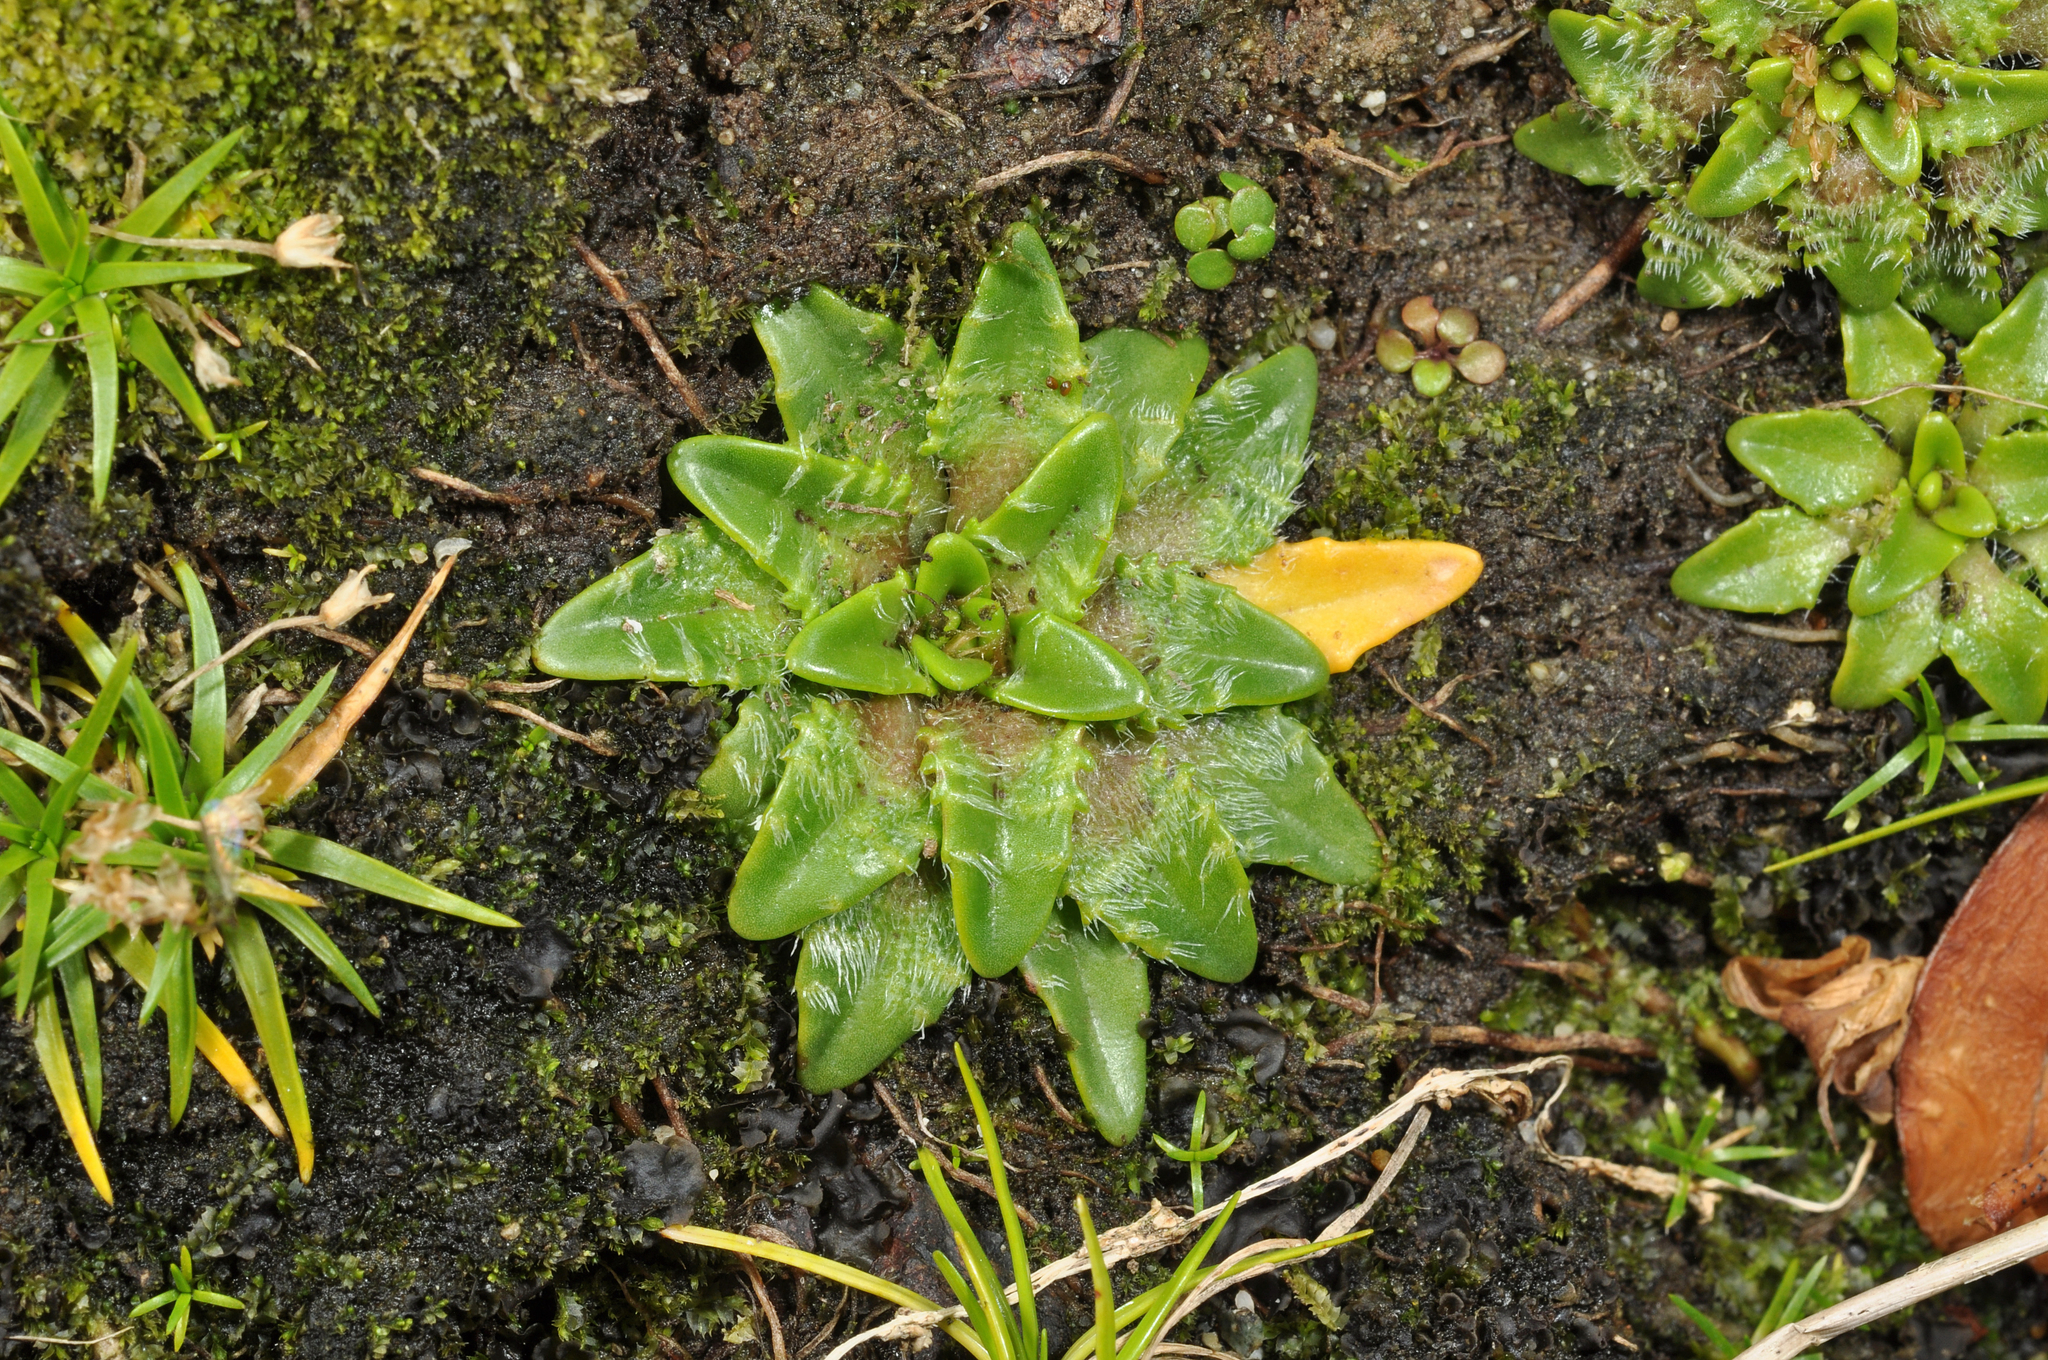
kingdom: Plantae
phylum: Tracheophyta
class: Magnoliopsida
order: Lamiales
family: Plantaginaceae
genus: Plantago
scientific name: Plantago triandra
